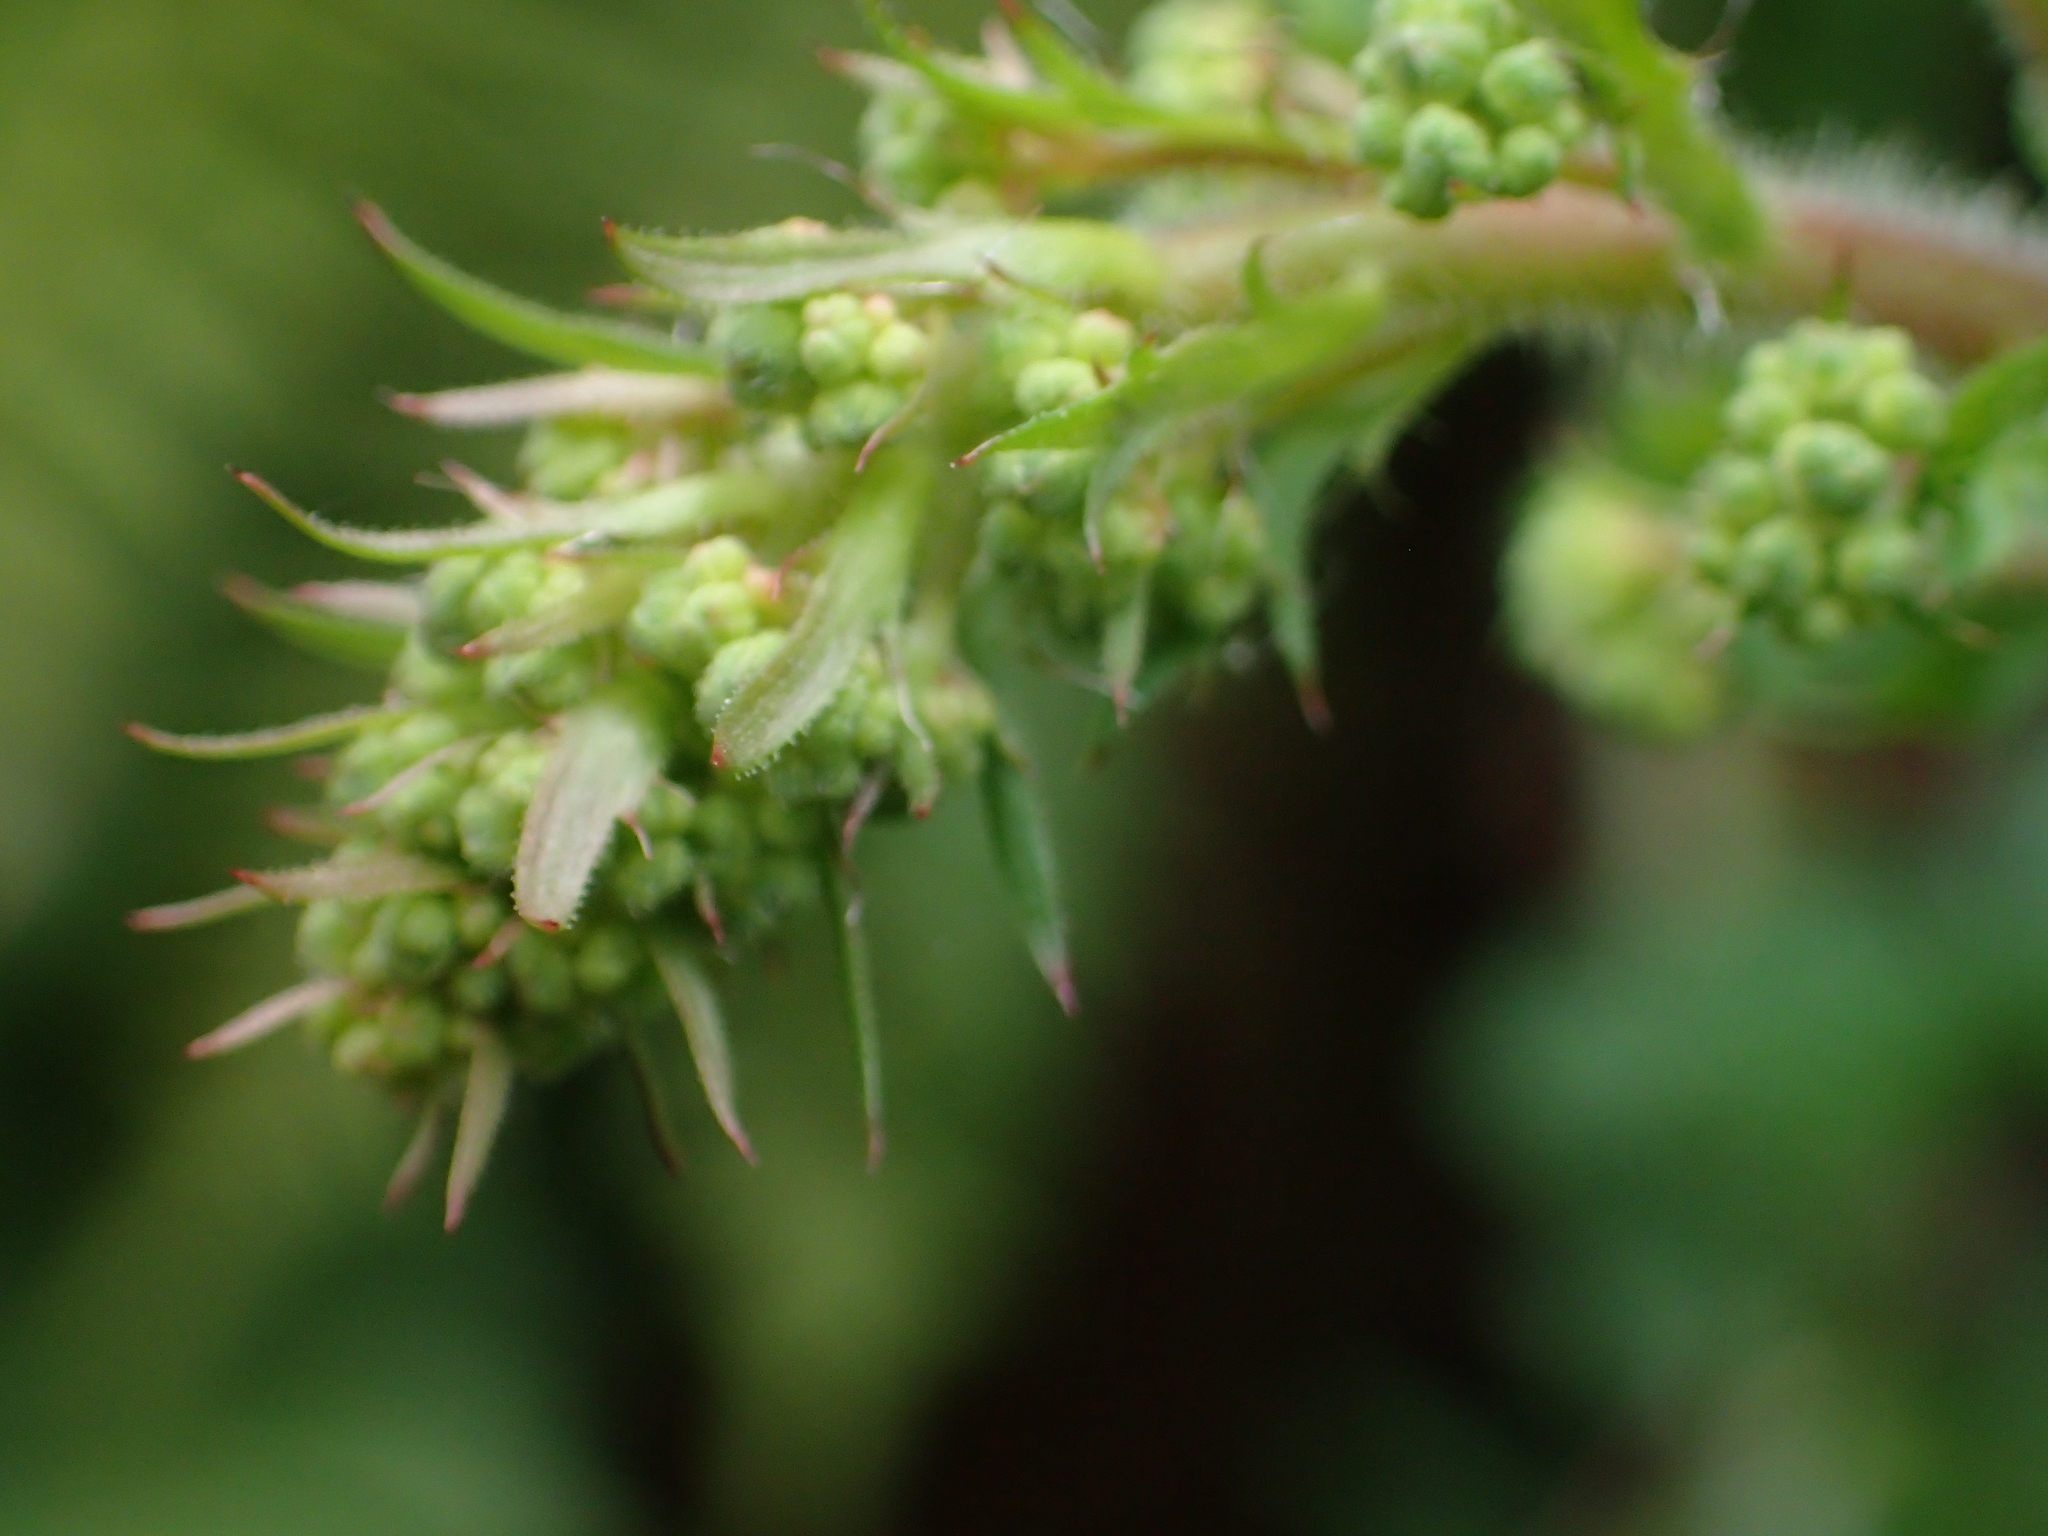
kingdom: Plantae
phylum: Tracheophyta
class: Magnoliopsida
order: Saxifragales
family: Saxifragaceae
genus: Heuchera
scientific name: Heuchera micrantha
